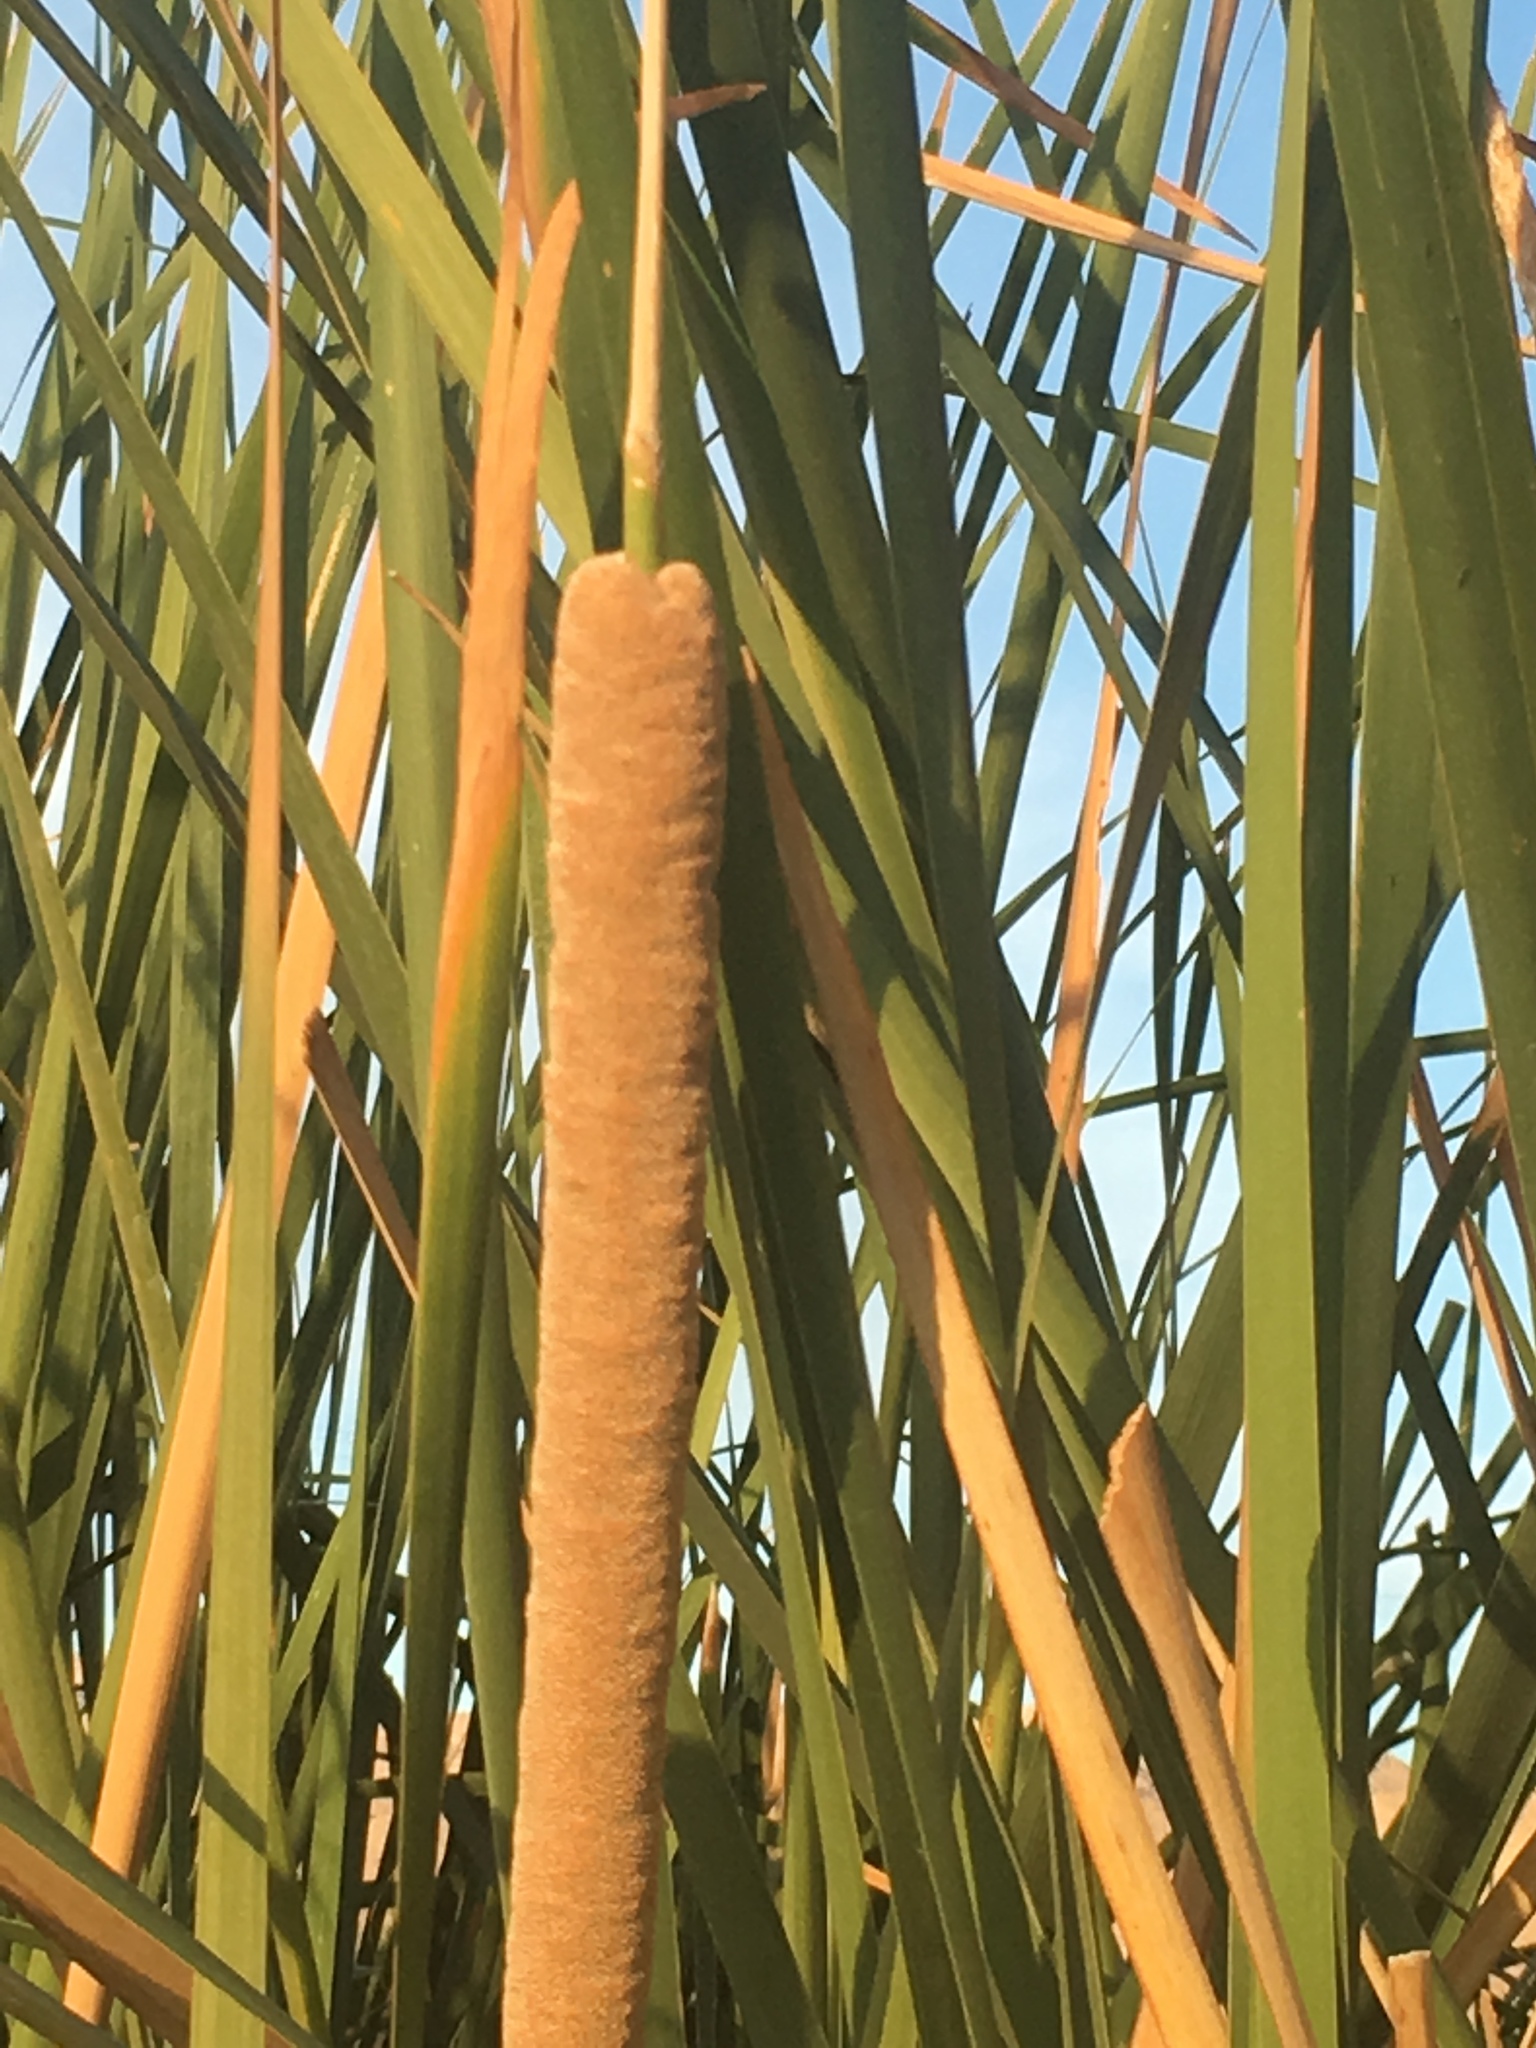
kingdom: Plantae
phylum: Tracheophyta
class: Liliopsida
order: Poales
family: Typhaceae
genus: Typha
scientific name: Typha domingensis
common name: Southern cattail
